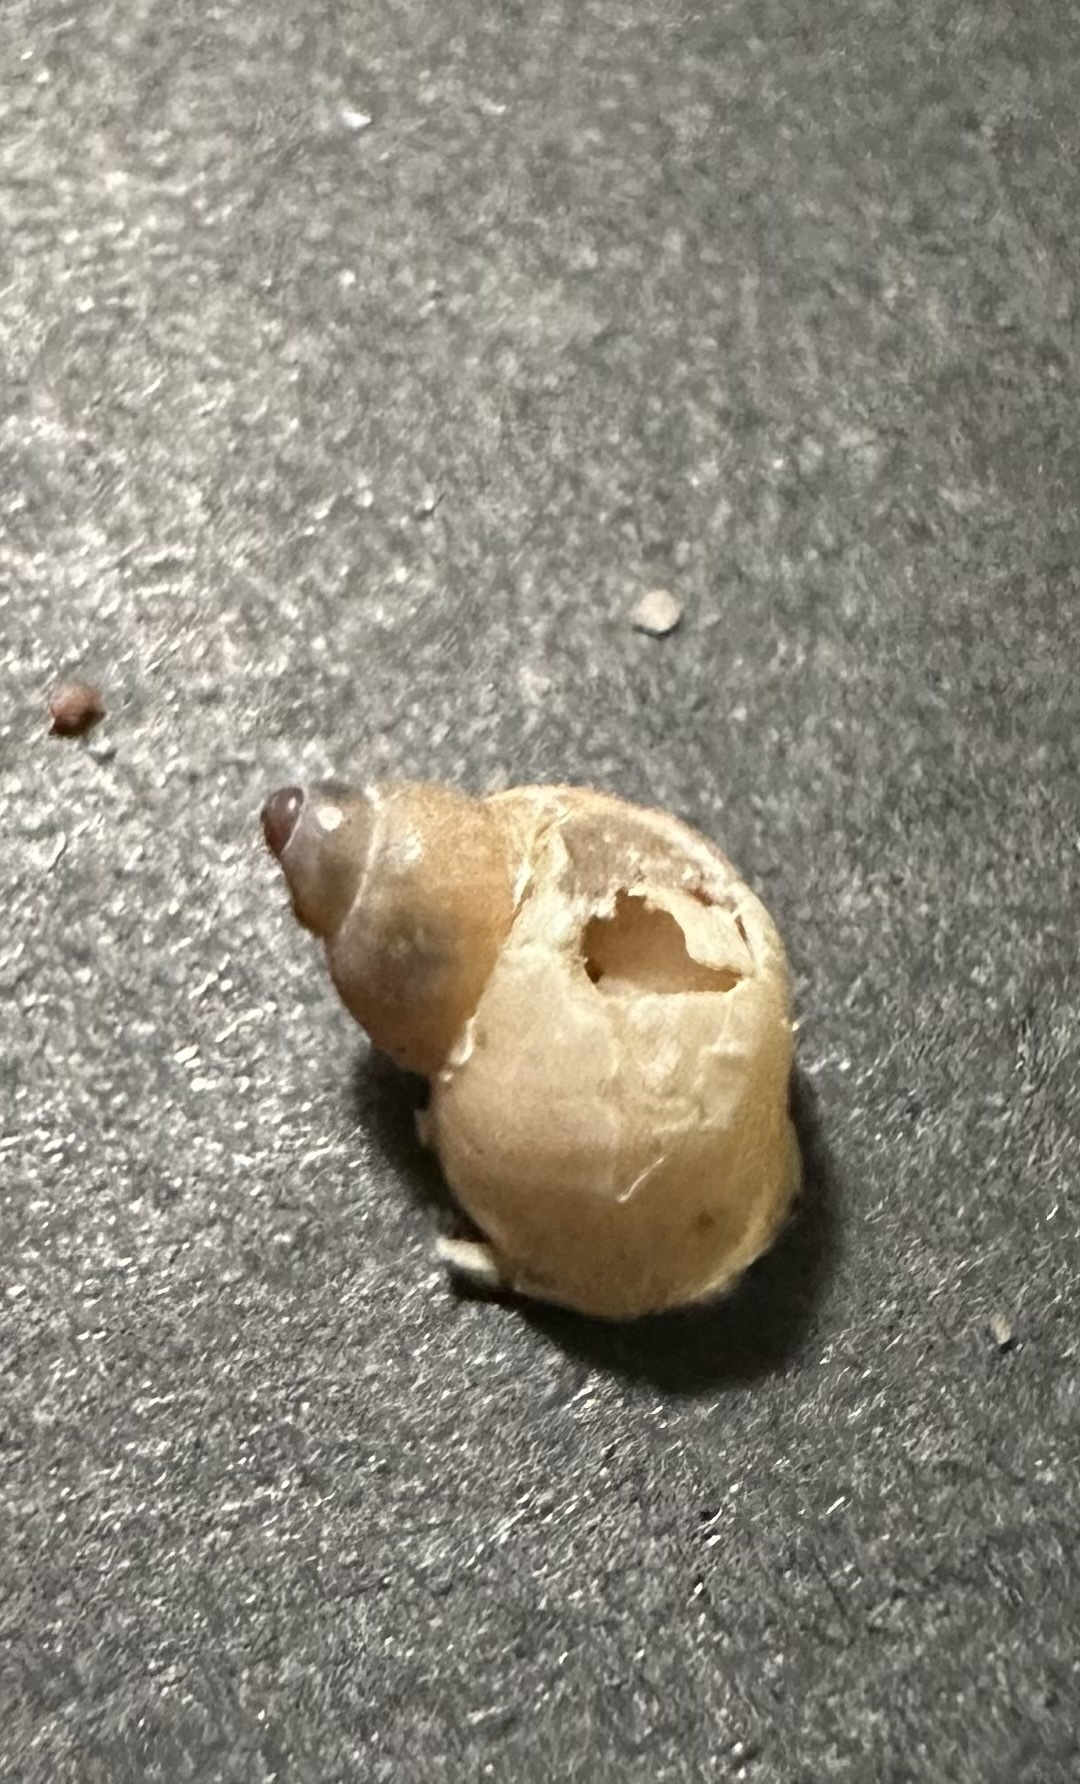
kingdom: Animalia
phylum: Mollusca
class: Gastropoda
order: Littorinimorpha
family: Littorinidae
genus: Lacuna
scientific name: Lacuna vincta
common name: Banded chink shell
